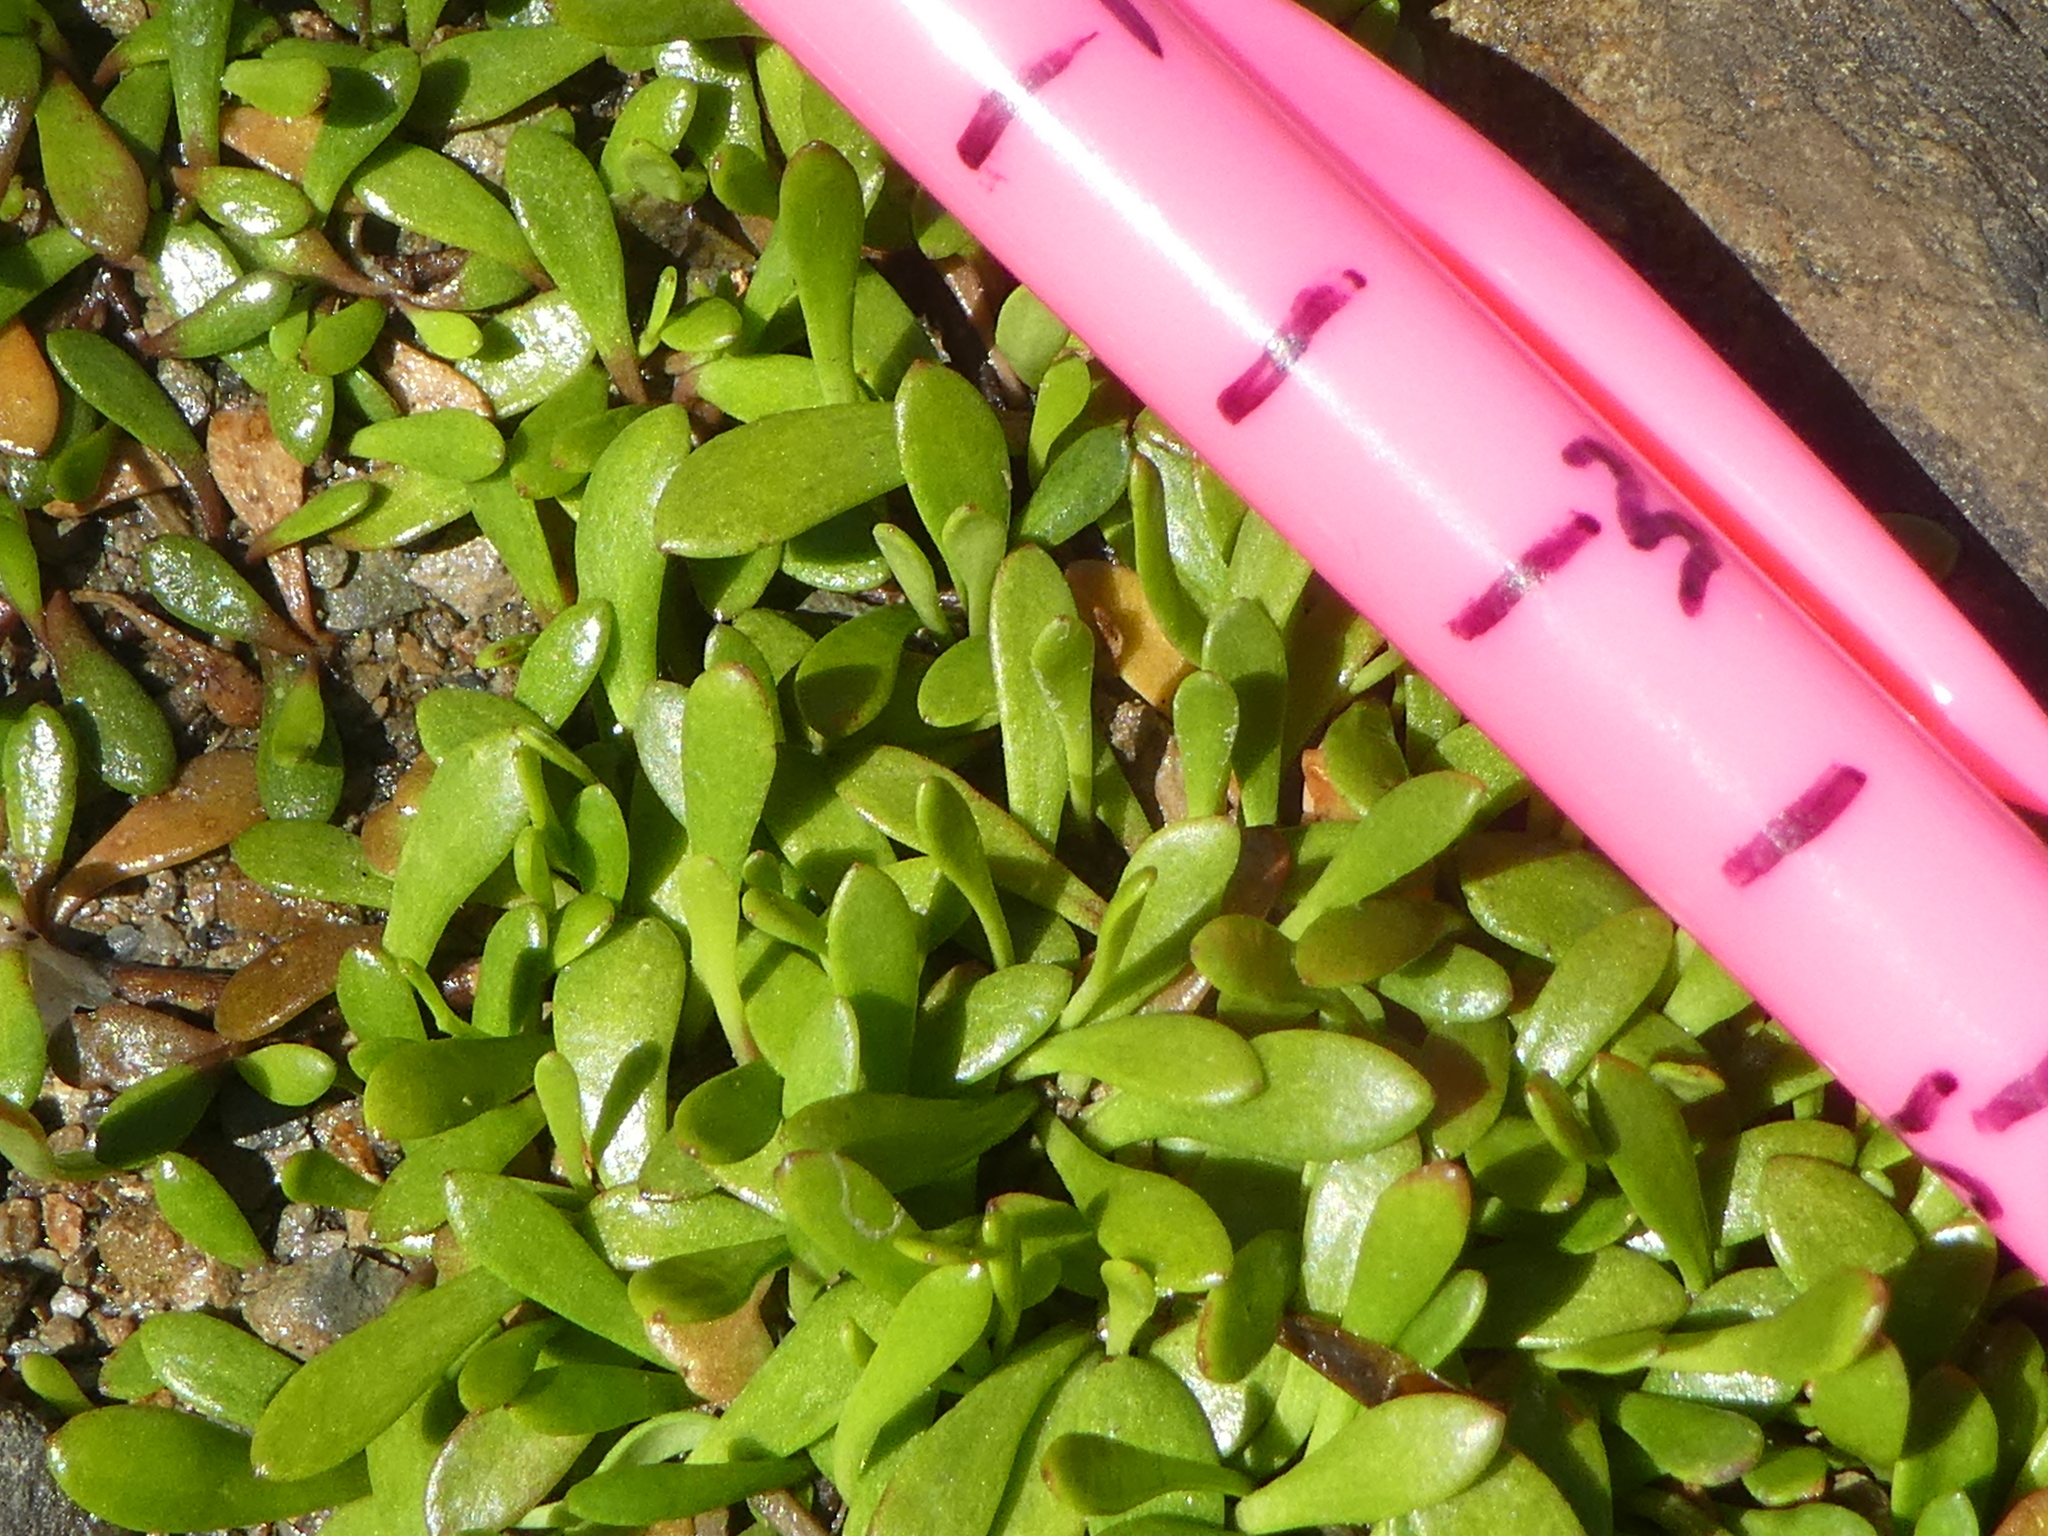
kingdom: Plantae
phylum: Tracheophyta
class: Magnoliopsida
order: Asterales
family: Goodeniaceae
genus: Goodenia
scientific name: Goodenia radicans
